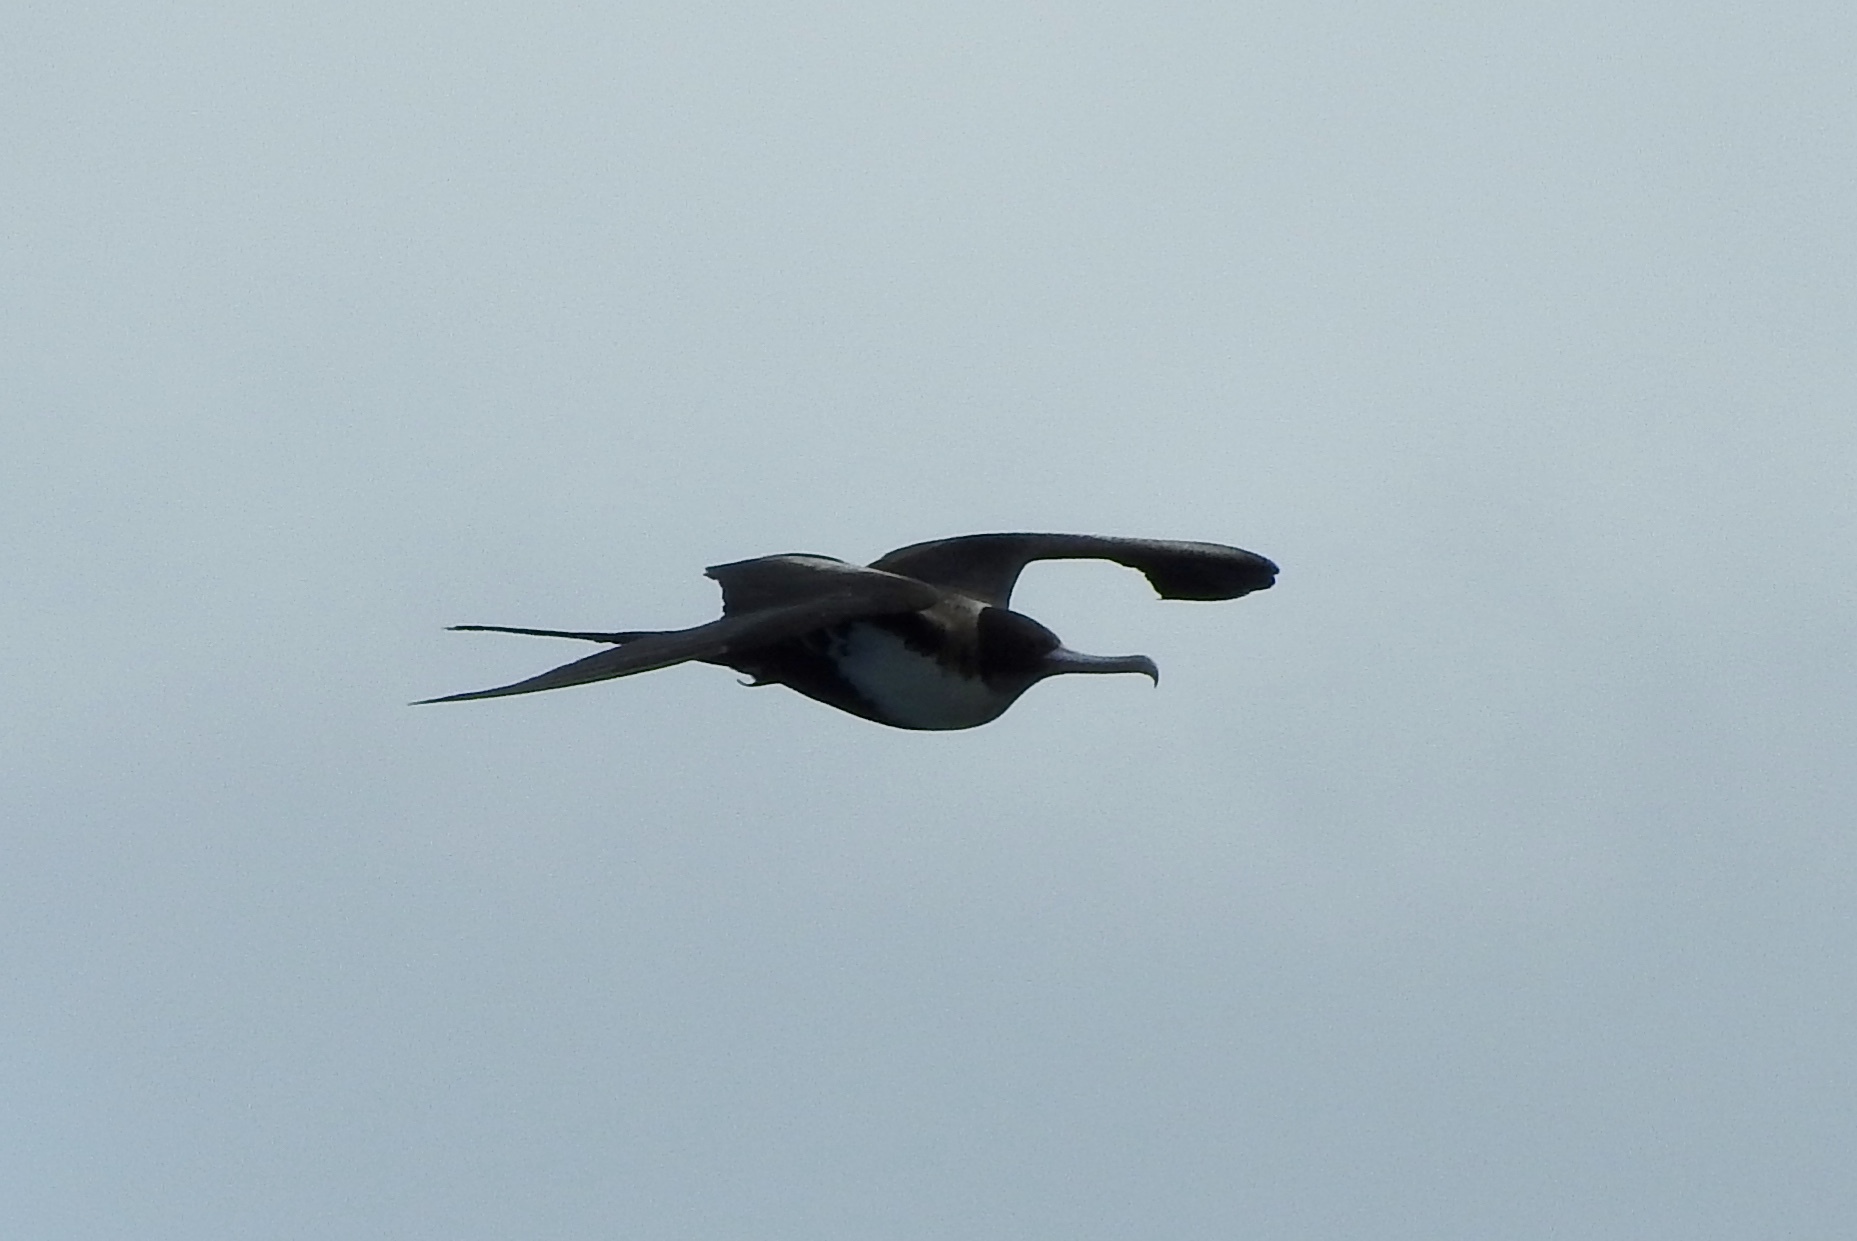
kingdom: Animalia
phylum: Chordata
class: Aves
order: Suliformes
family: Fregatidae
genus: Fregata
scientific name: Fregata minor
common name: Great frigatebird
